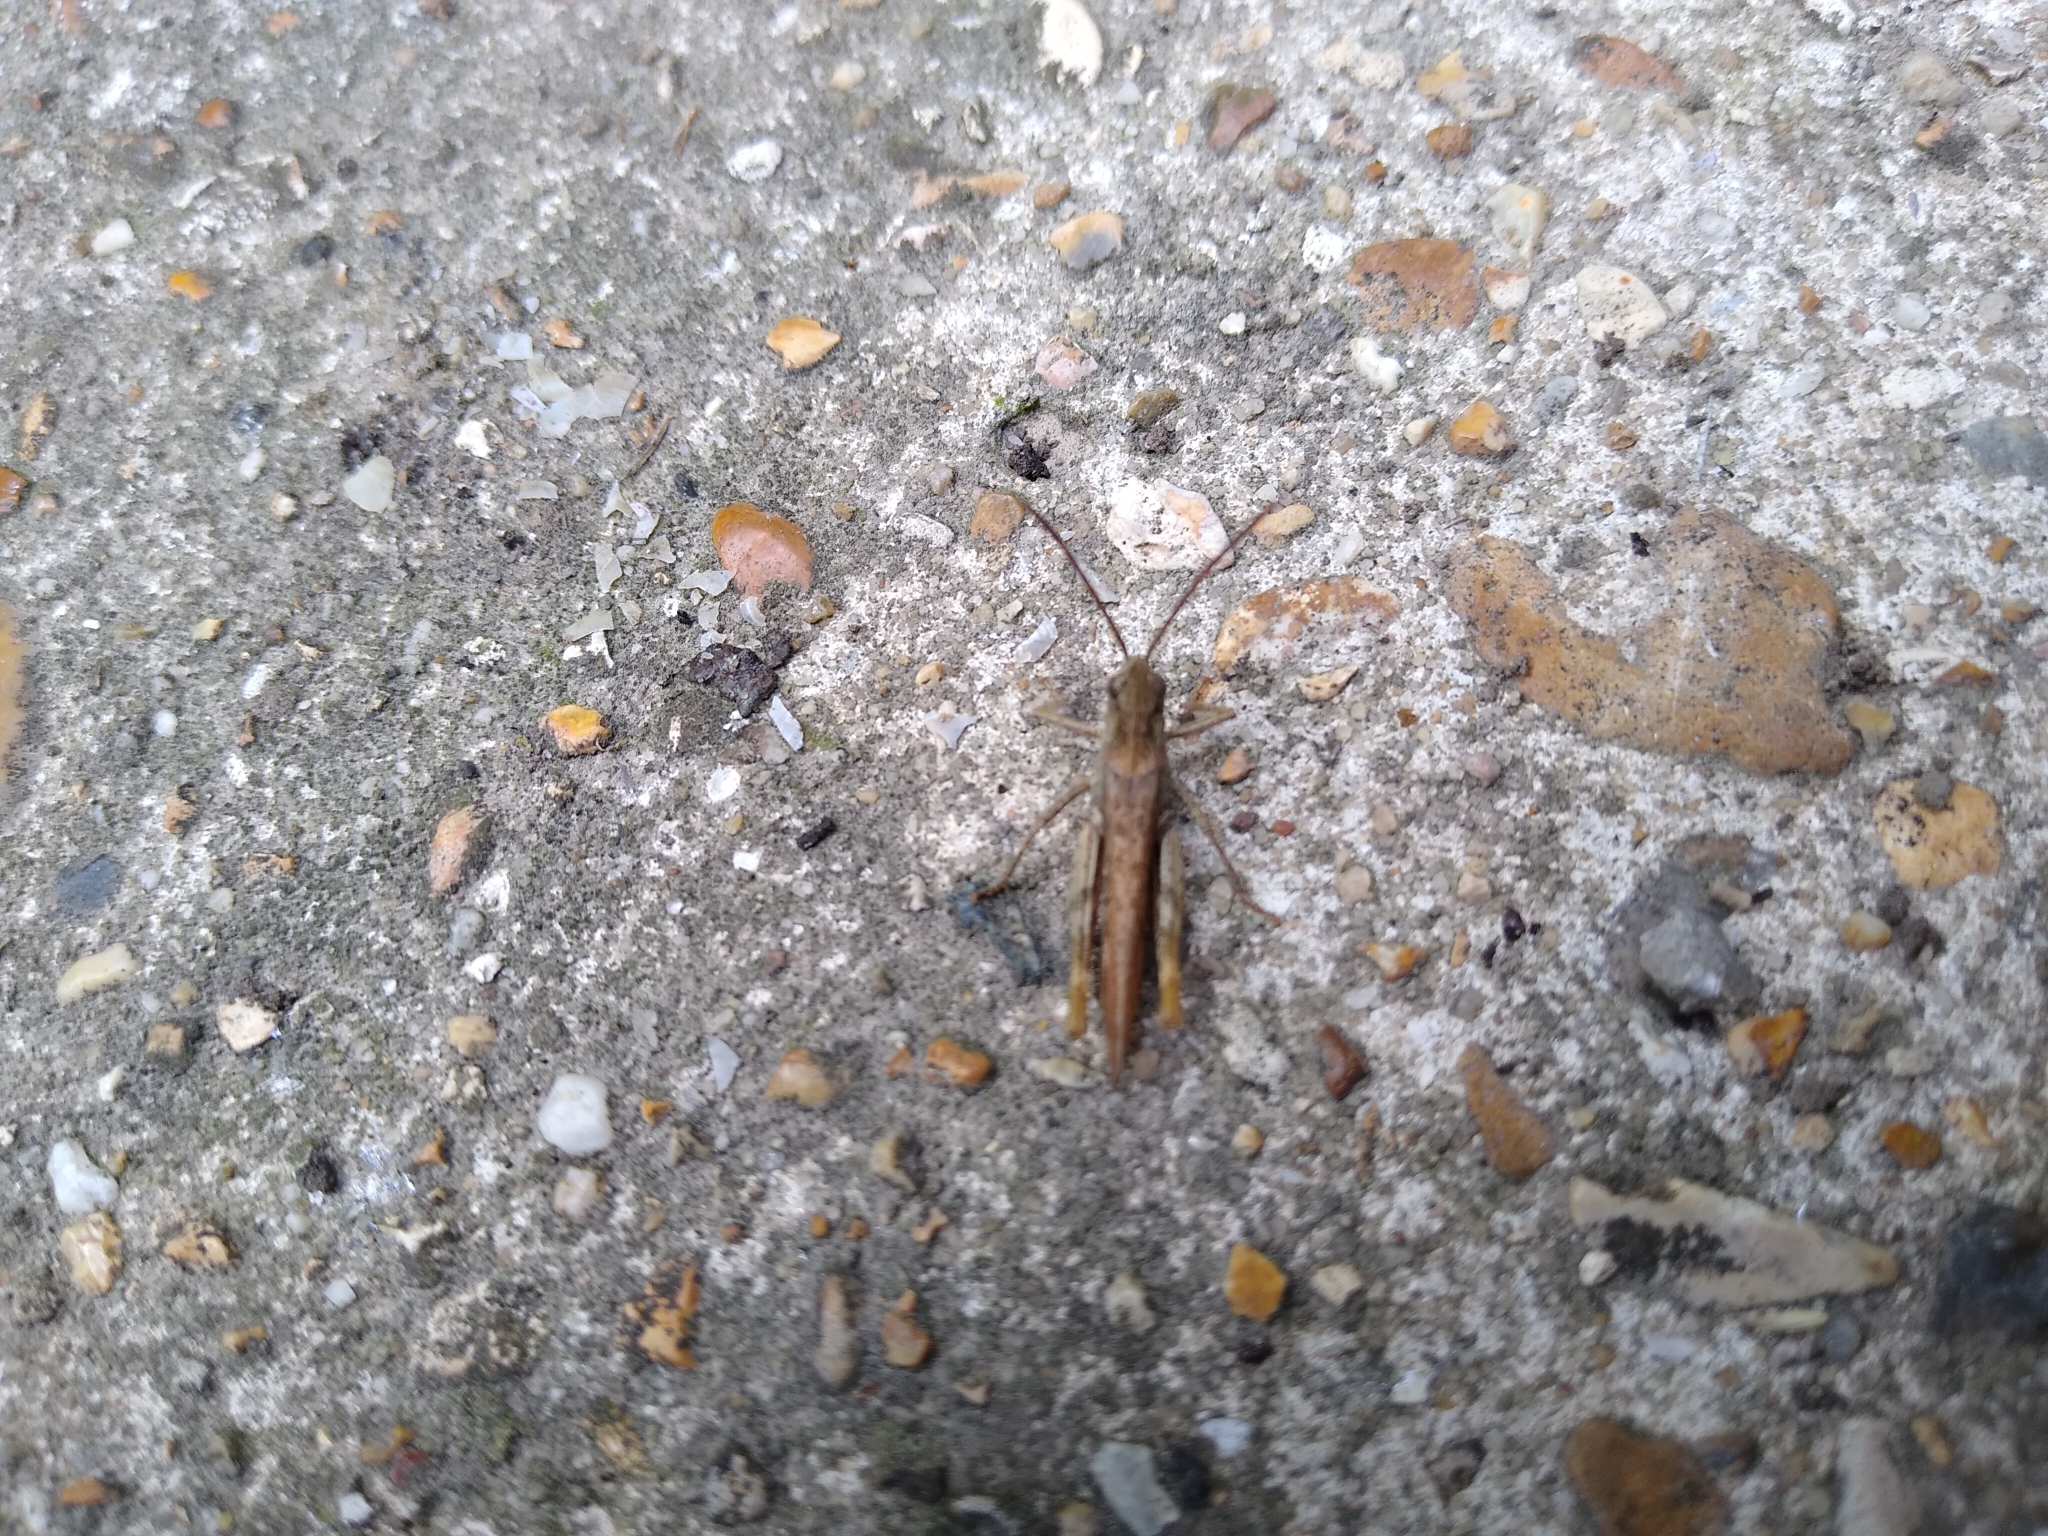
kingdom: Animalia
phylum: Arthropoda
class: Insecta
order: Orthoptera
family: Acrididae
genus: Chorthippus
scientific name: Chorthippus brunneus
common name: Field grasshopper
